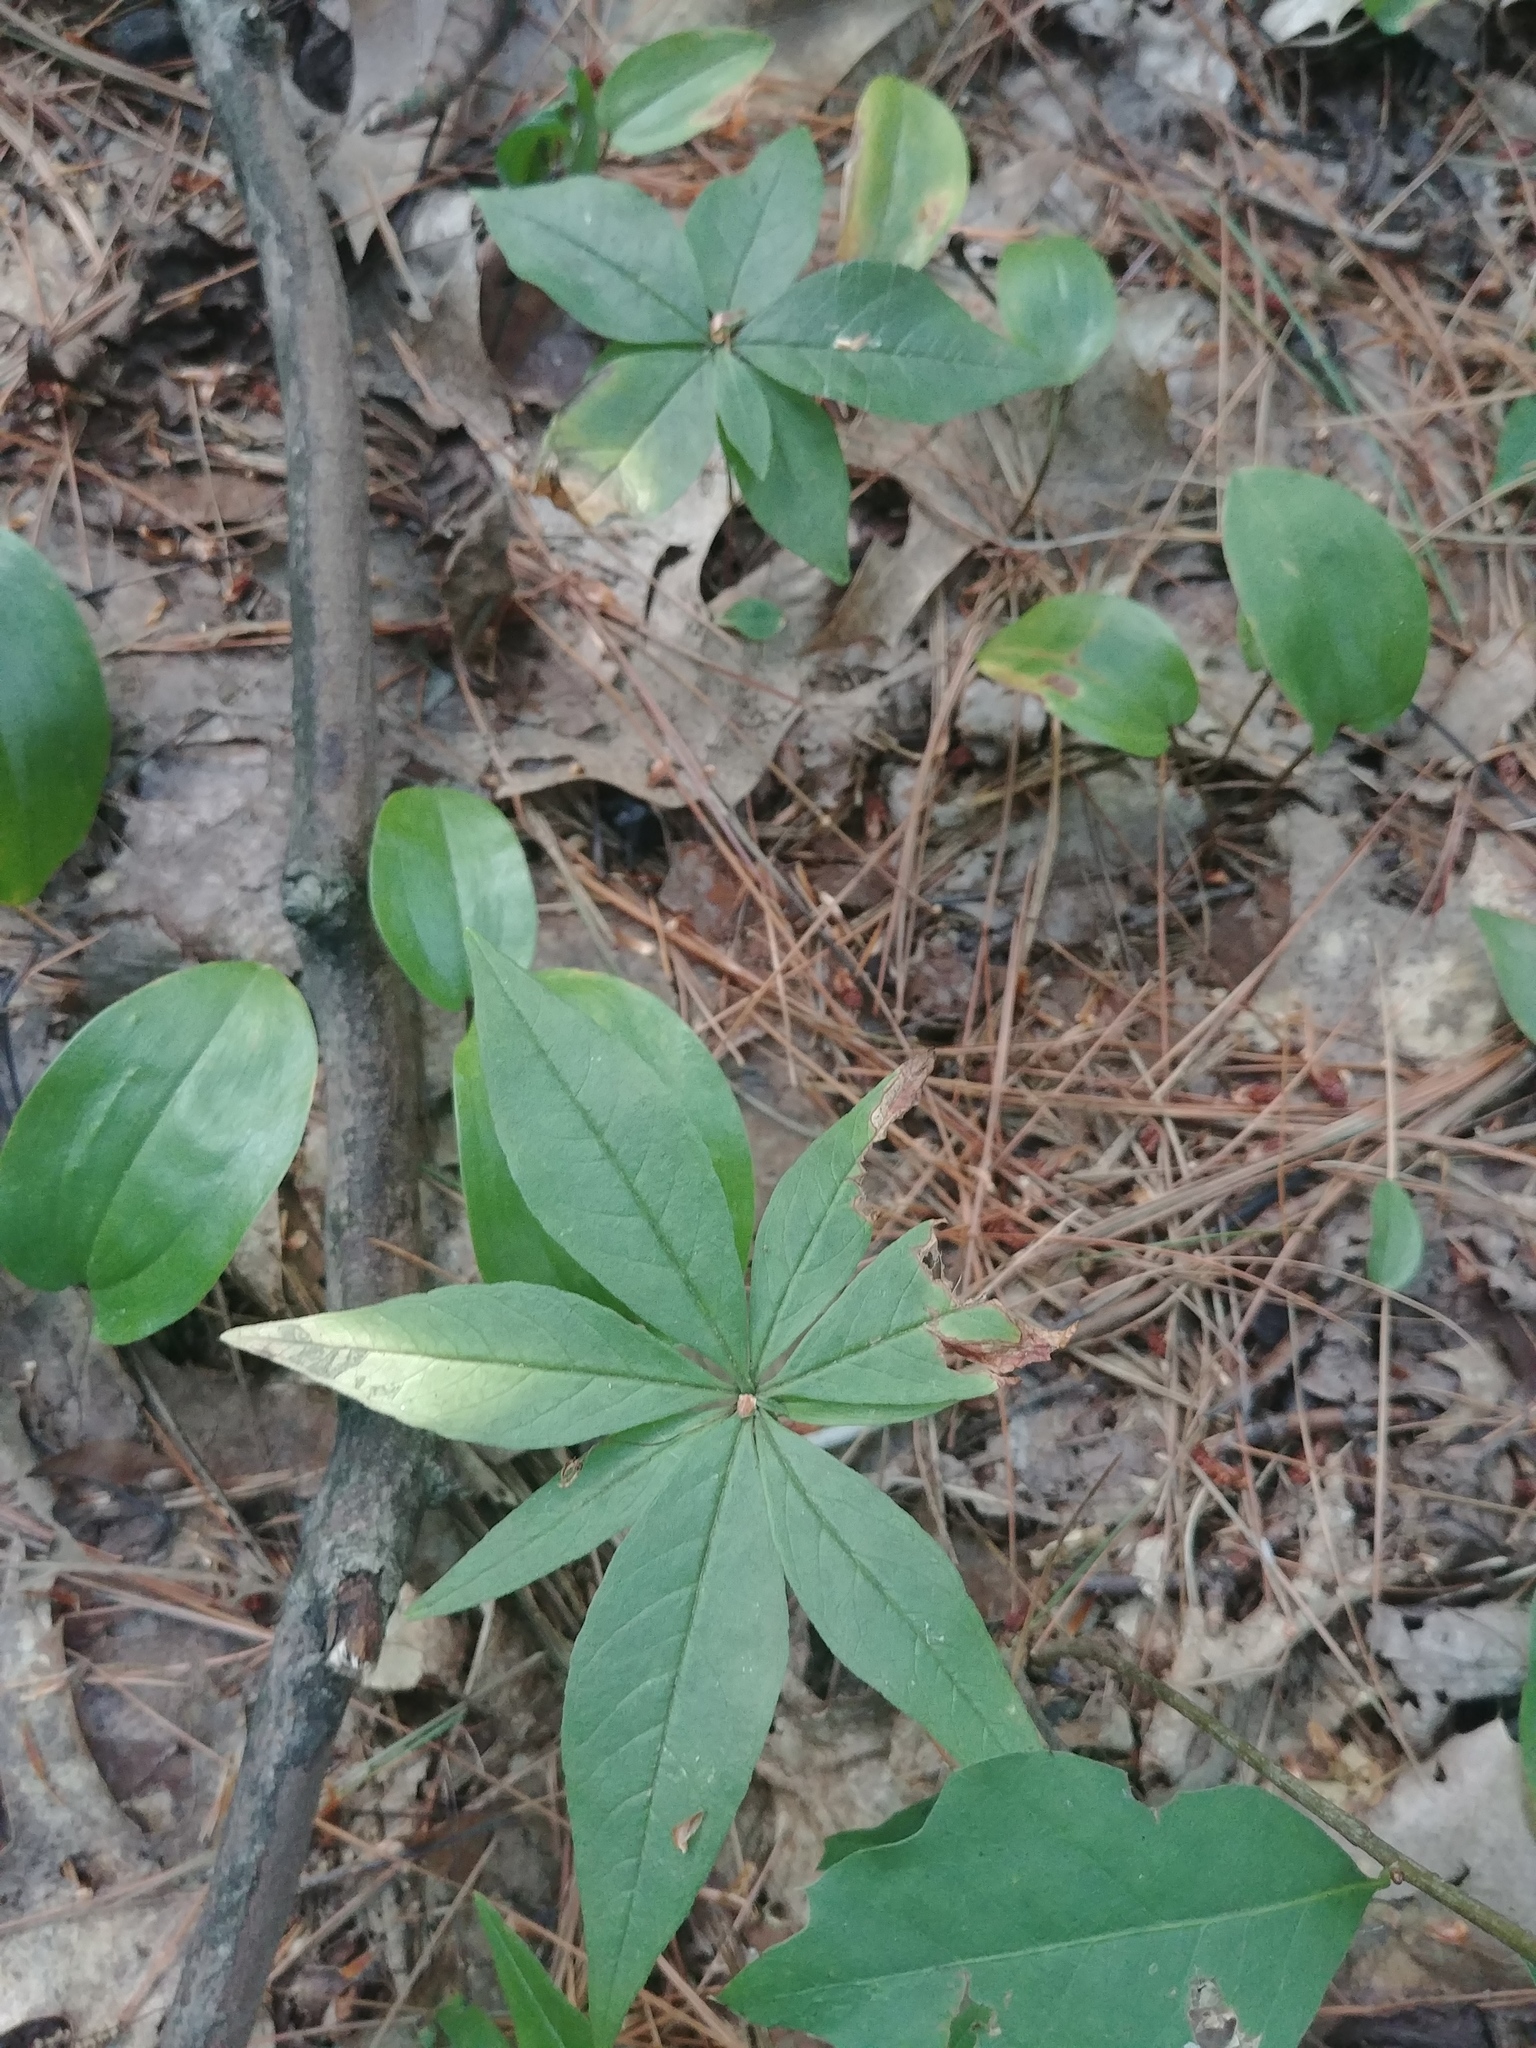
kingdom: Plantae
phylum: Tracheophyta
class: Magnoliopsida
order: Ericales
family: Primulaceae
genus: Lysimachia
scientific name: Lysimachia borealis
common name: American starflower
